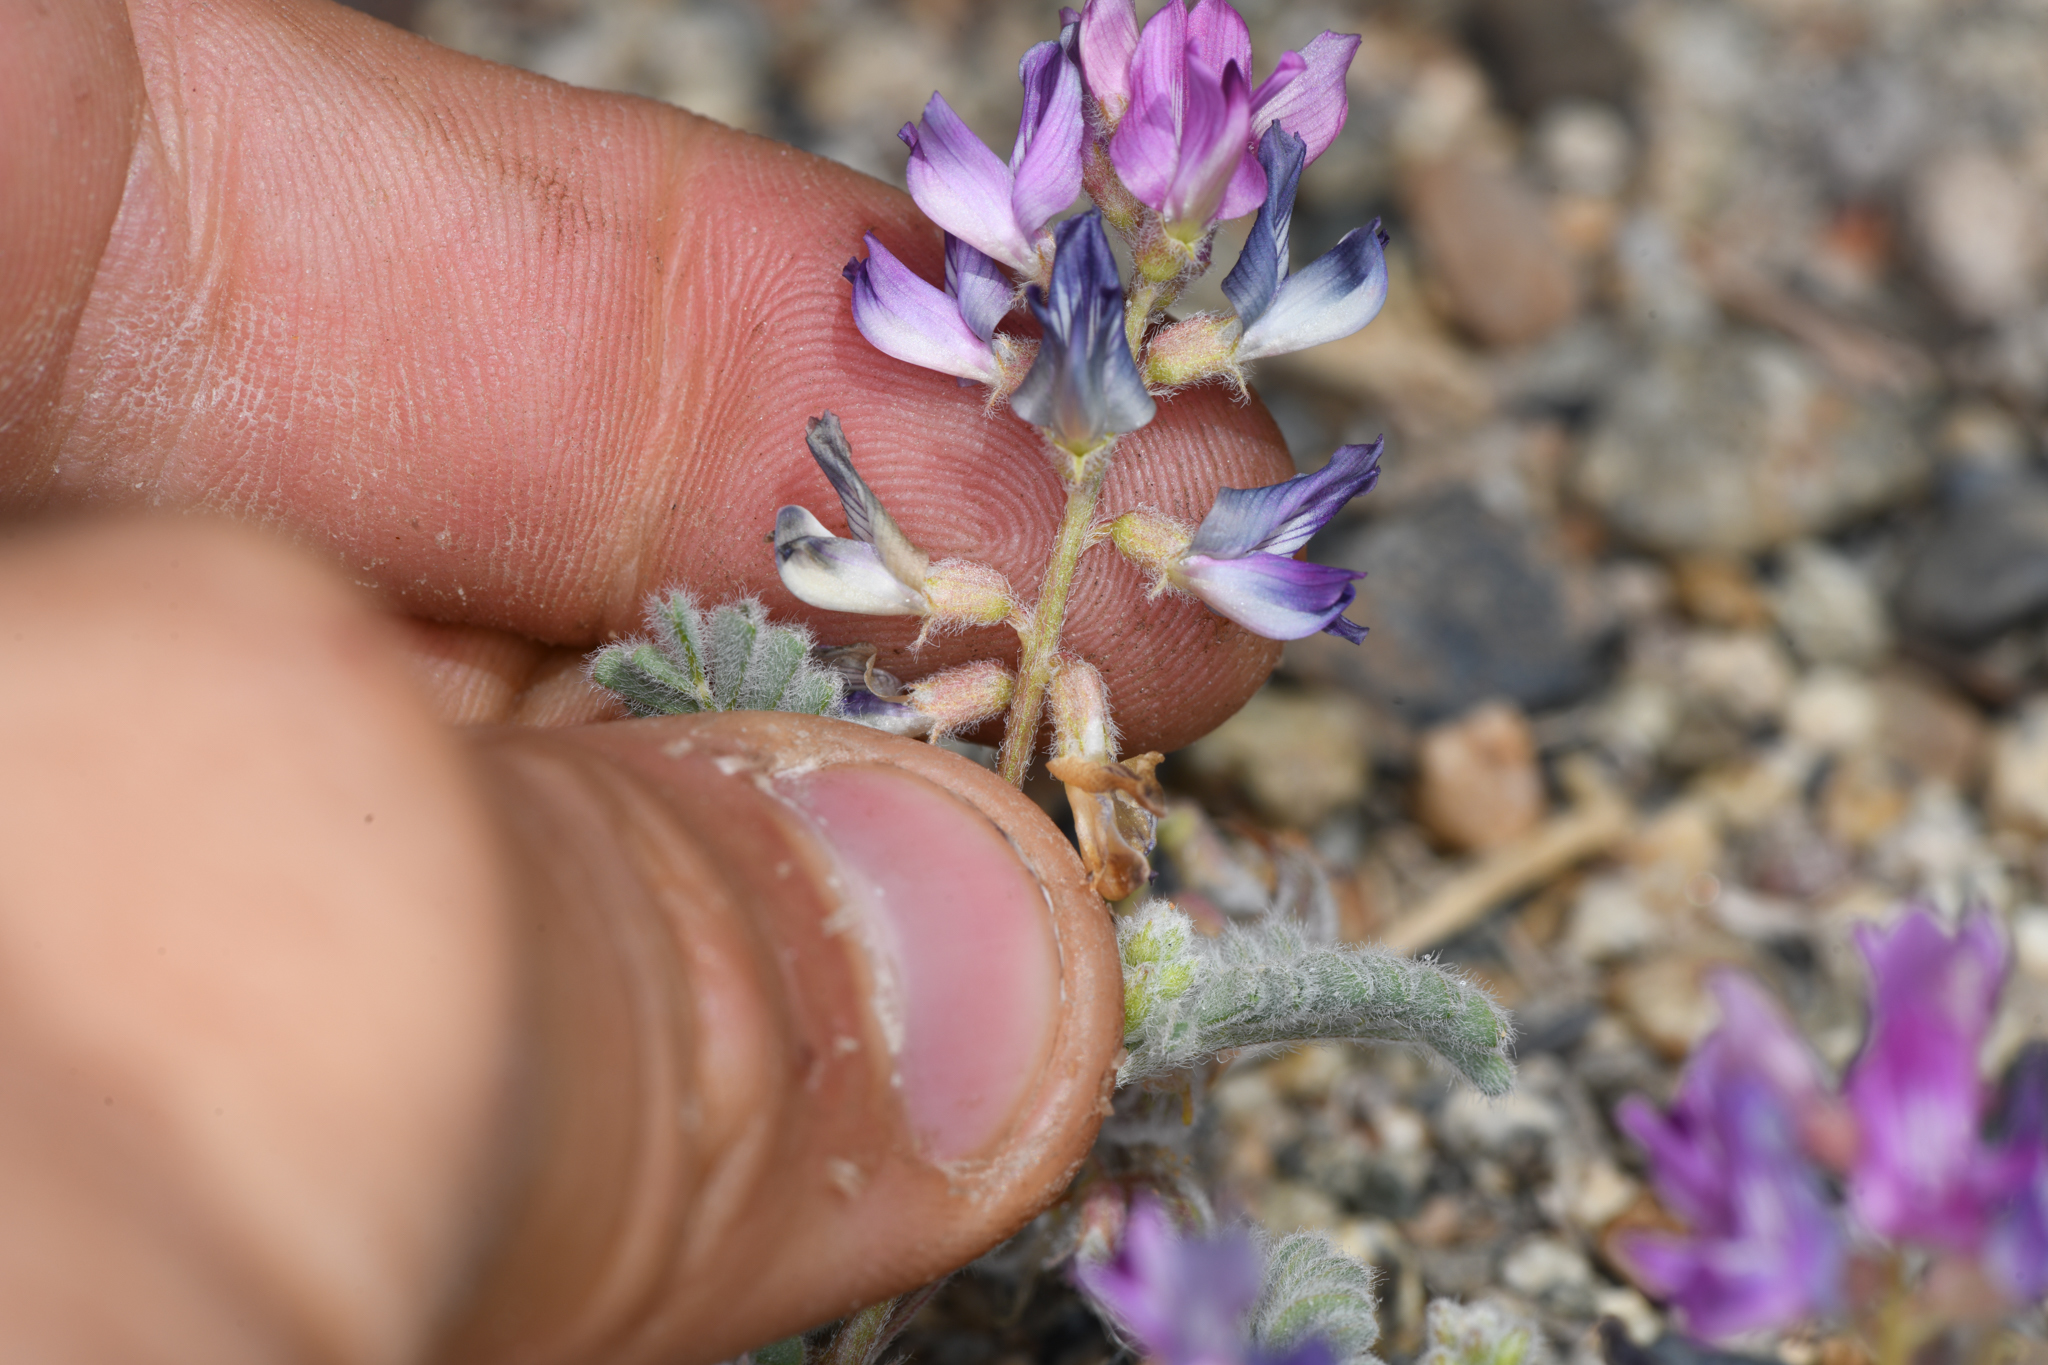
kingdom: Plantae
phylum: Tracheophyta
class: Magnoliopsida
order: Fabales
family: Fabaceae
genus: Astragalus
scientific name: Astragalus lentiginosus
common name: Freckled milkvetch
